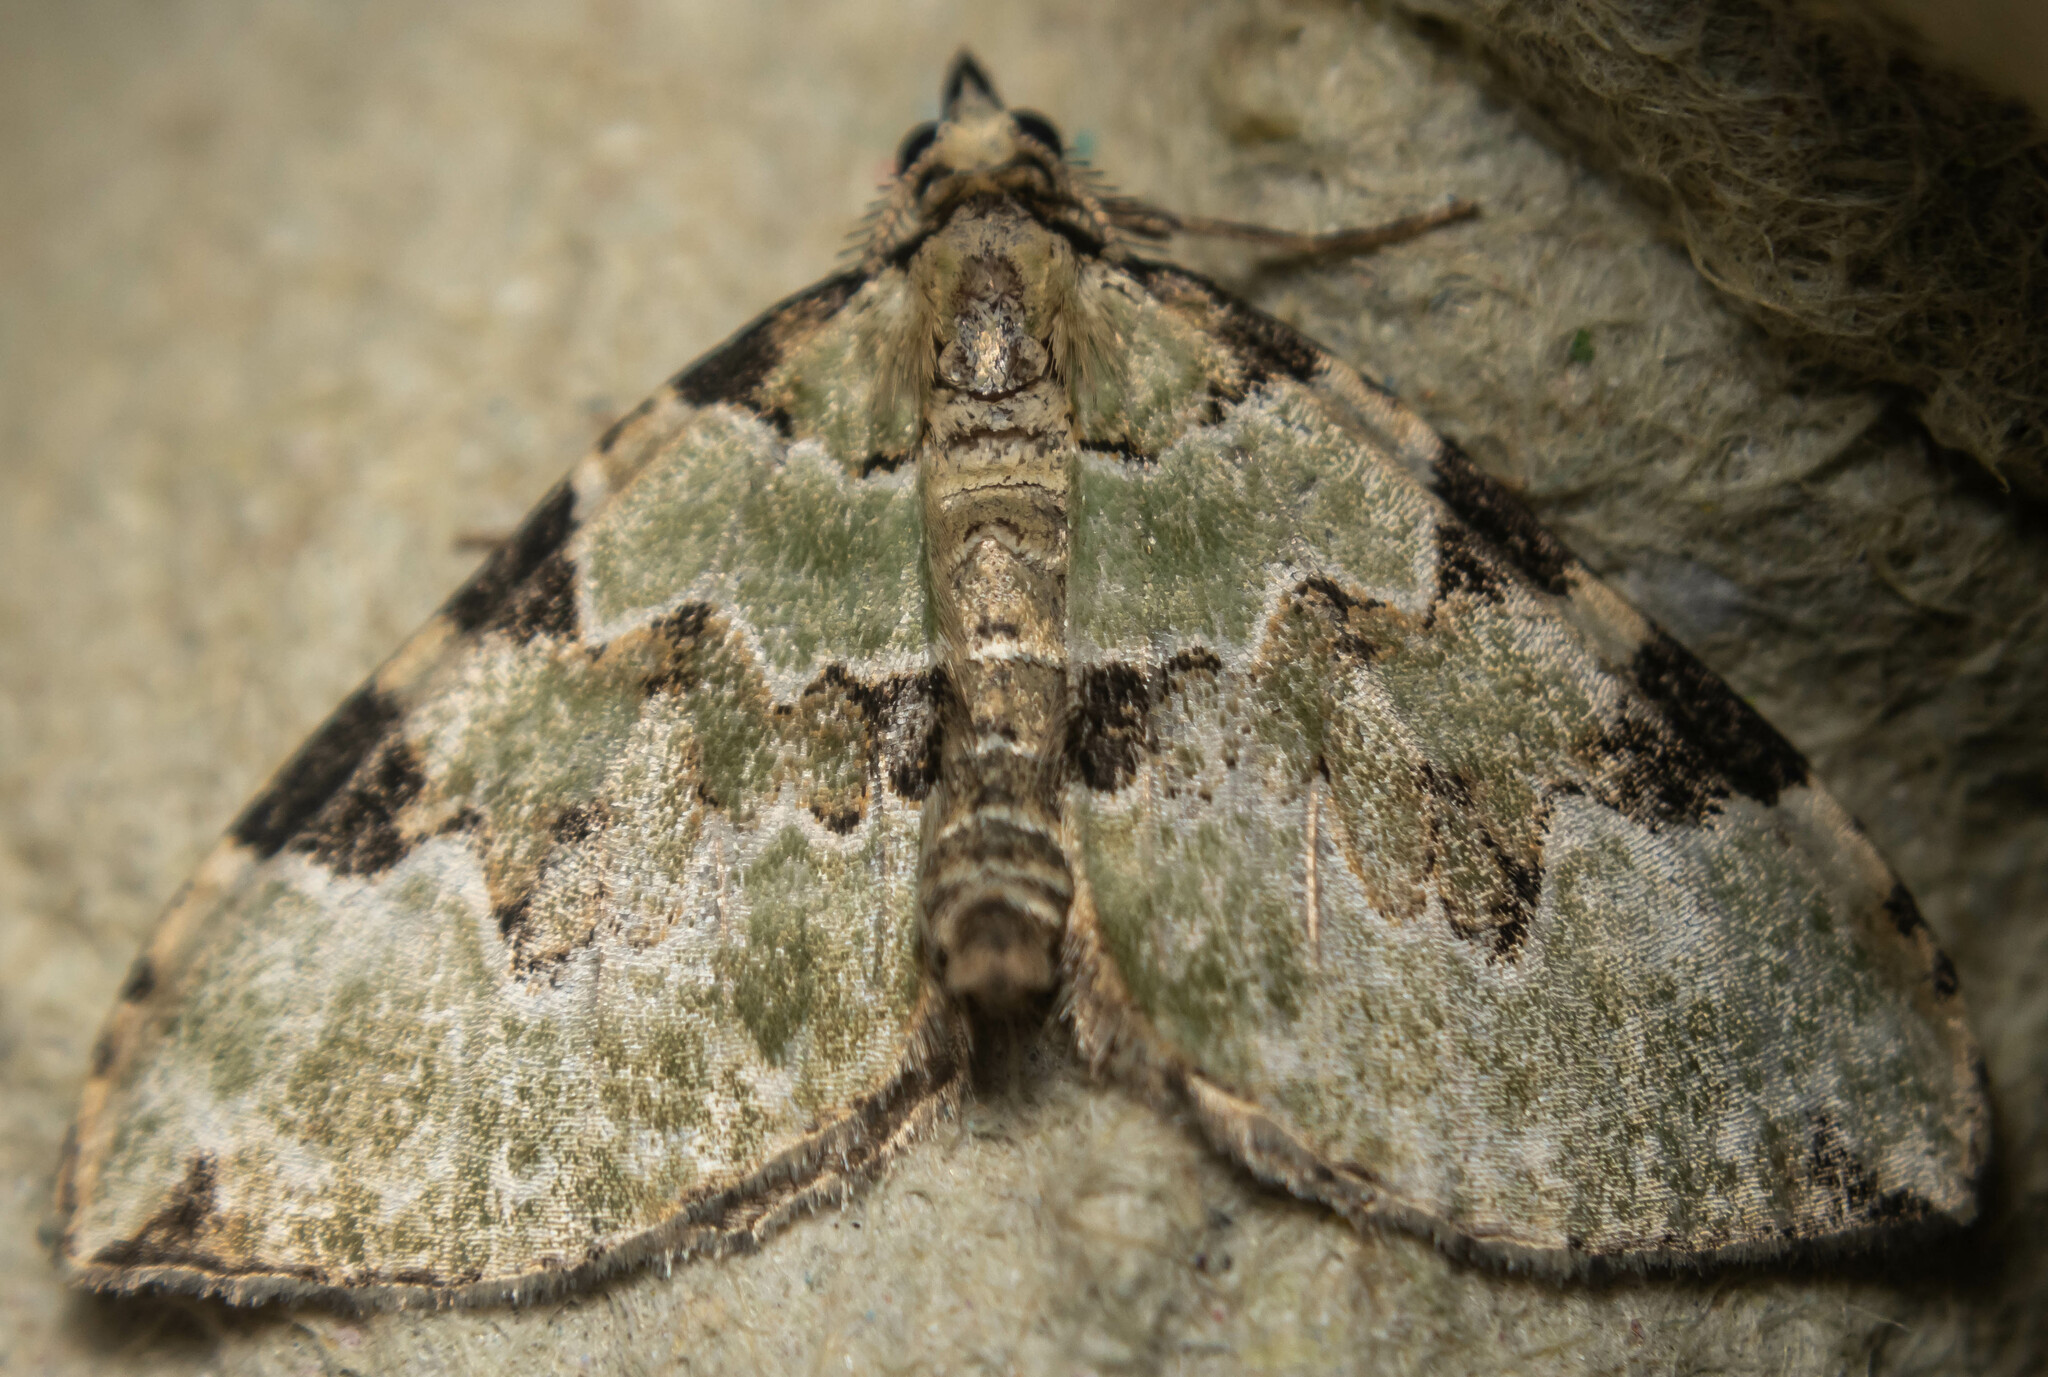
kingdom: Animalia
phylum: Arthropoda
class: Insecta
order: Lepidoptera
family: Geometridae
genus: Colostygia
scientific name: Colostygia pectinataria
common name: Green carpet
